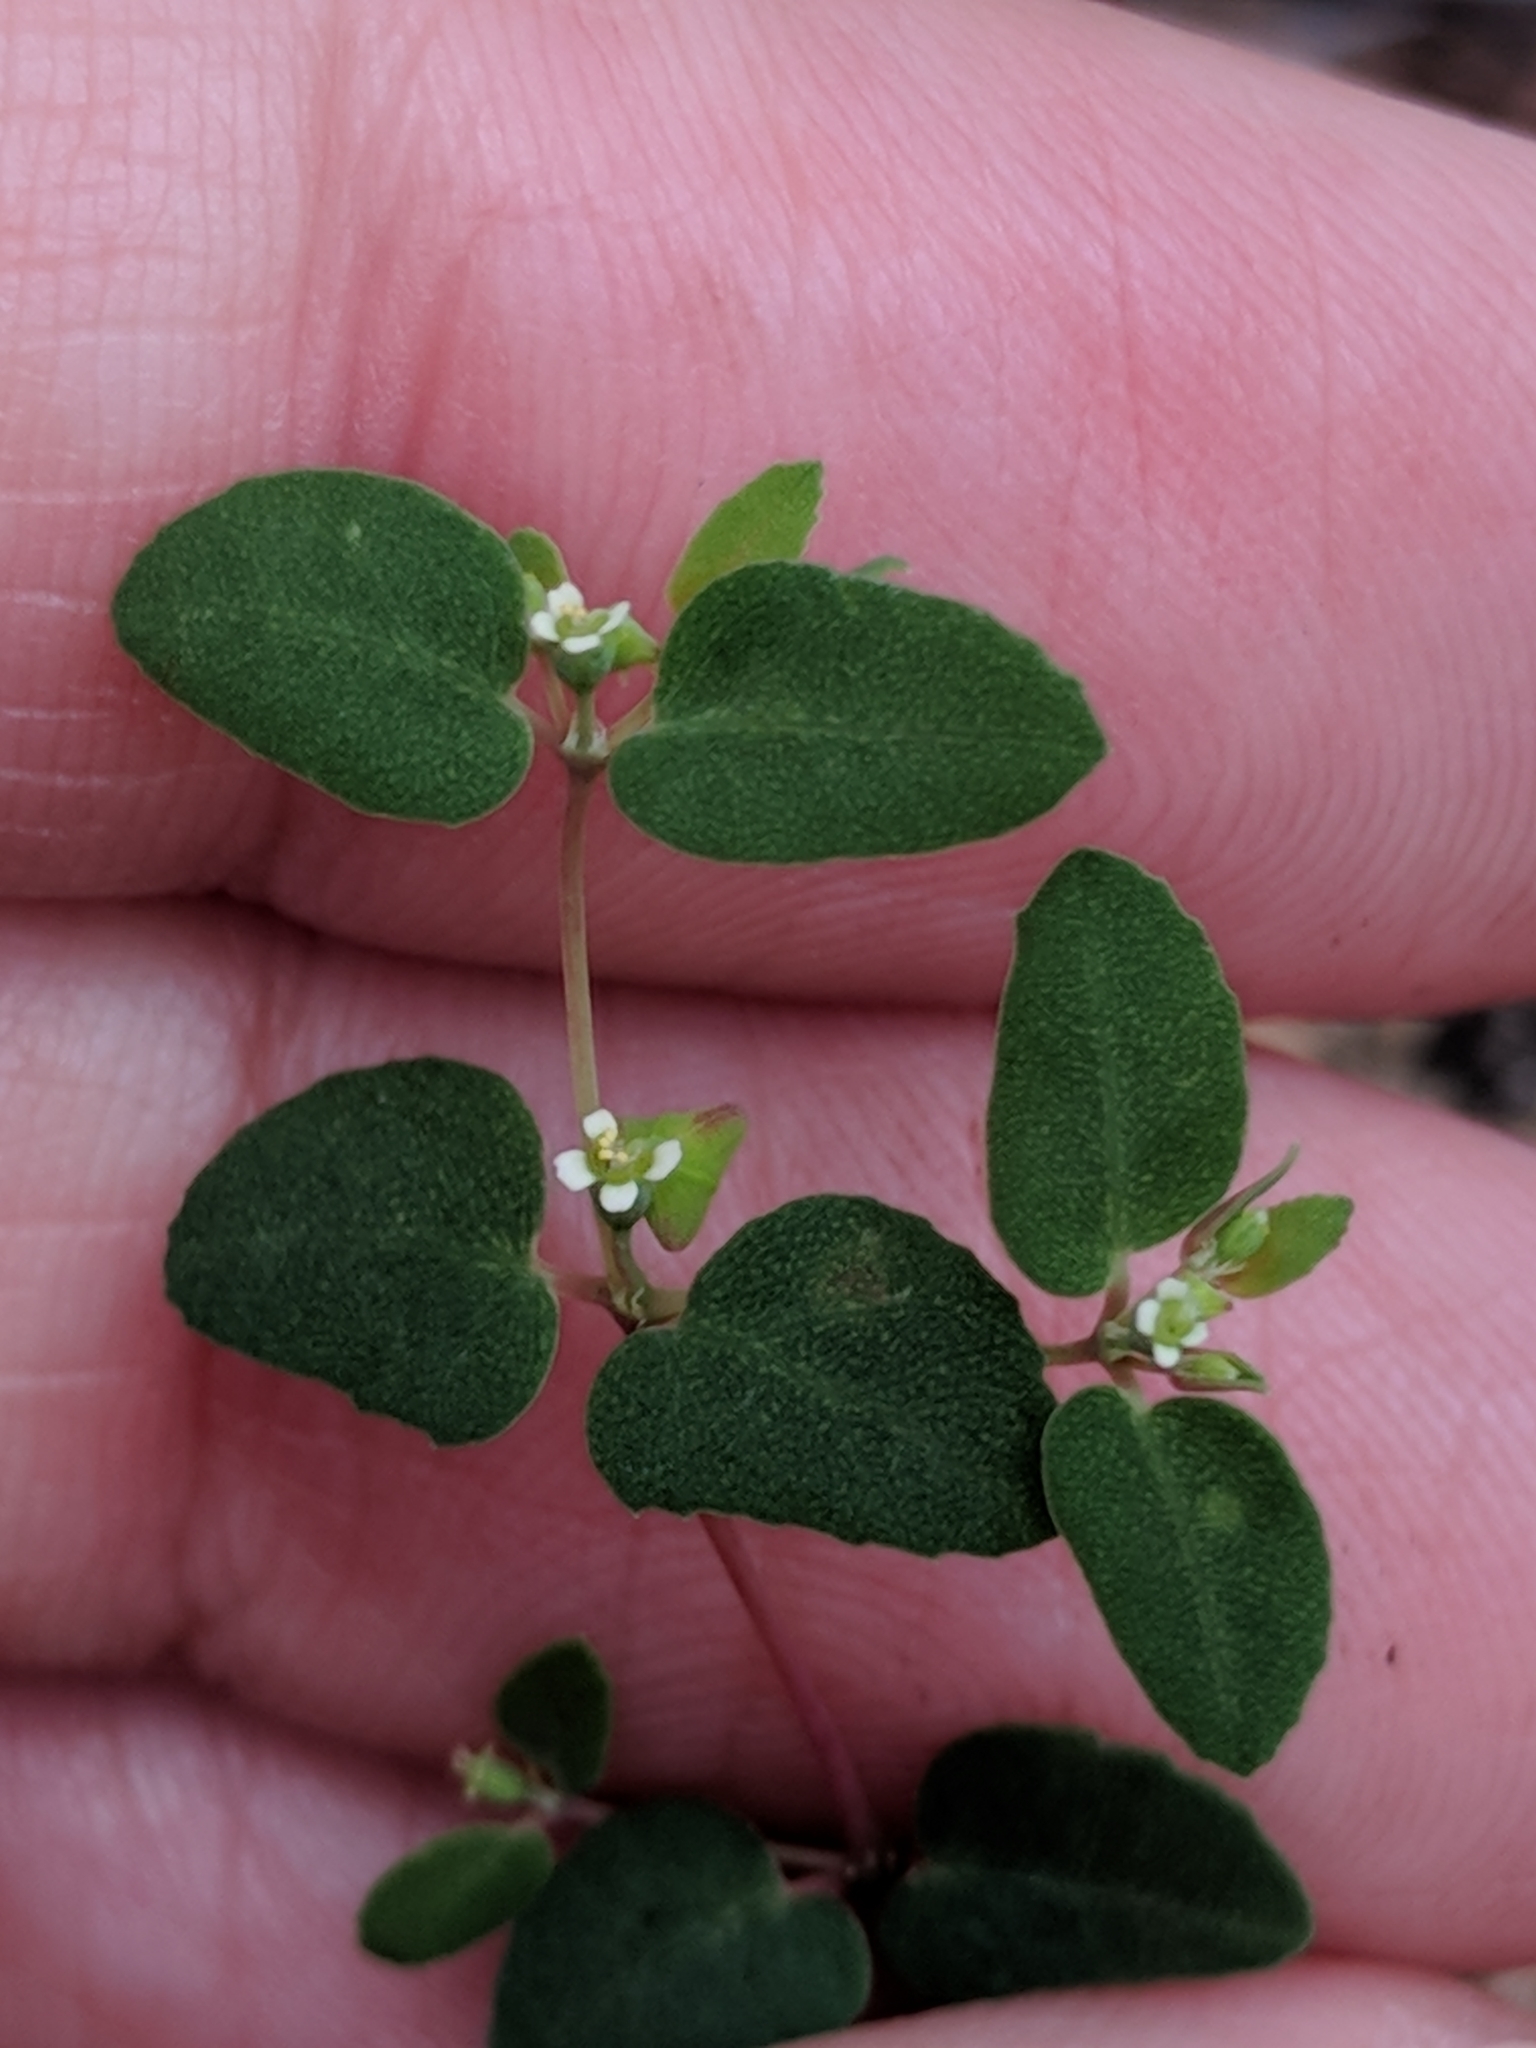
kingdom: Plantae
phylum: Tracheophyta
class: Magnoliopsida
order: Malpighiales
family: Euphorbiaceae
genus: Euphorbia
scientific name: Euphorbia villifera
